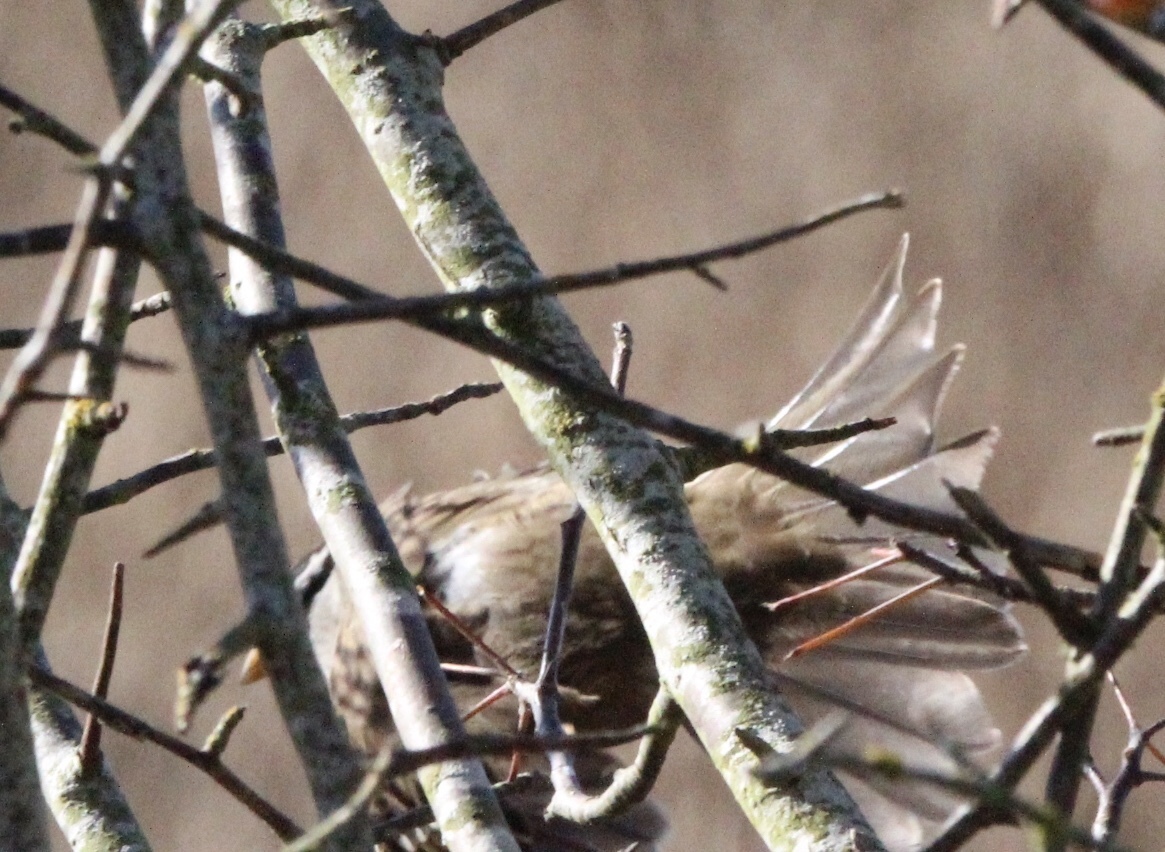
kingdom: Animalia
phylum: Chordata
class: Aves
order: Passeriformes
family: Passerellidae
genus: Zonotrichia
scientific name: Zonotrichia leucophrys
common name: White-crowned sparrow
